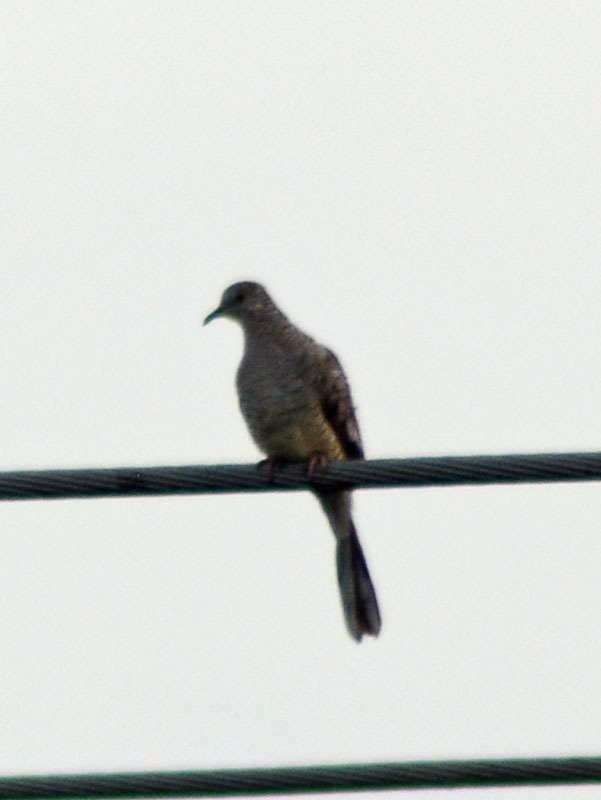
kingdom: Animalia
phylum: Chordata
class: Aves
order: Columbiformes
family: Columbidae
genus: Columbina
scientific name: Columbina inca
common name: Inca dove
